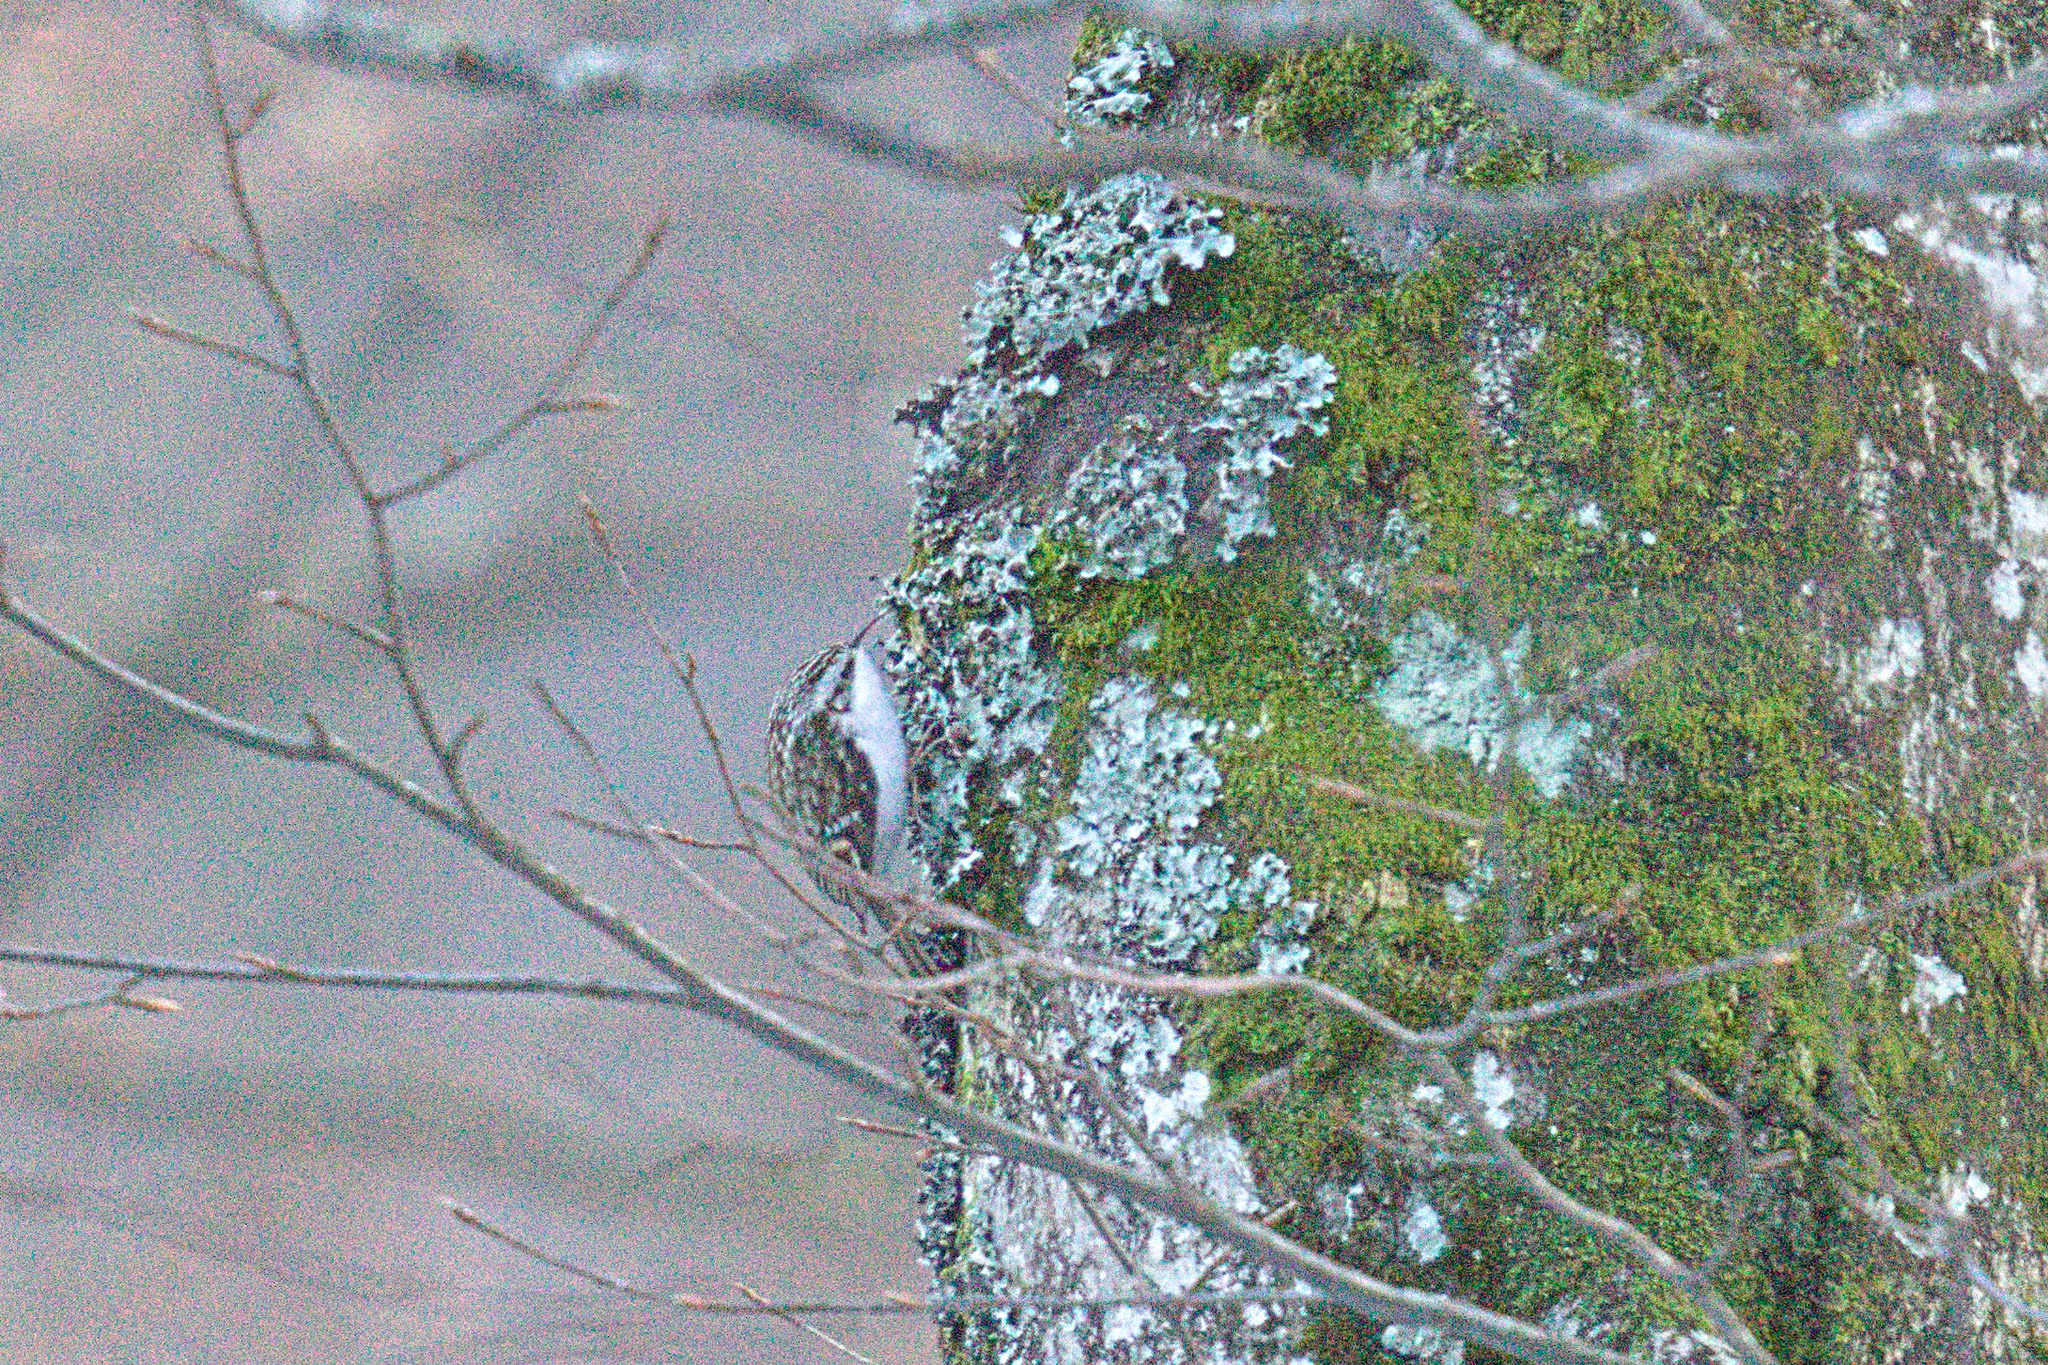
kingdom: Animalia
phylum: Chordata
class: Aves
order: Passeriformes
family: Certhiidae
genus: Certhia
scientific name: Certhia familiaris
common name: Eurasian treecreeper
